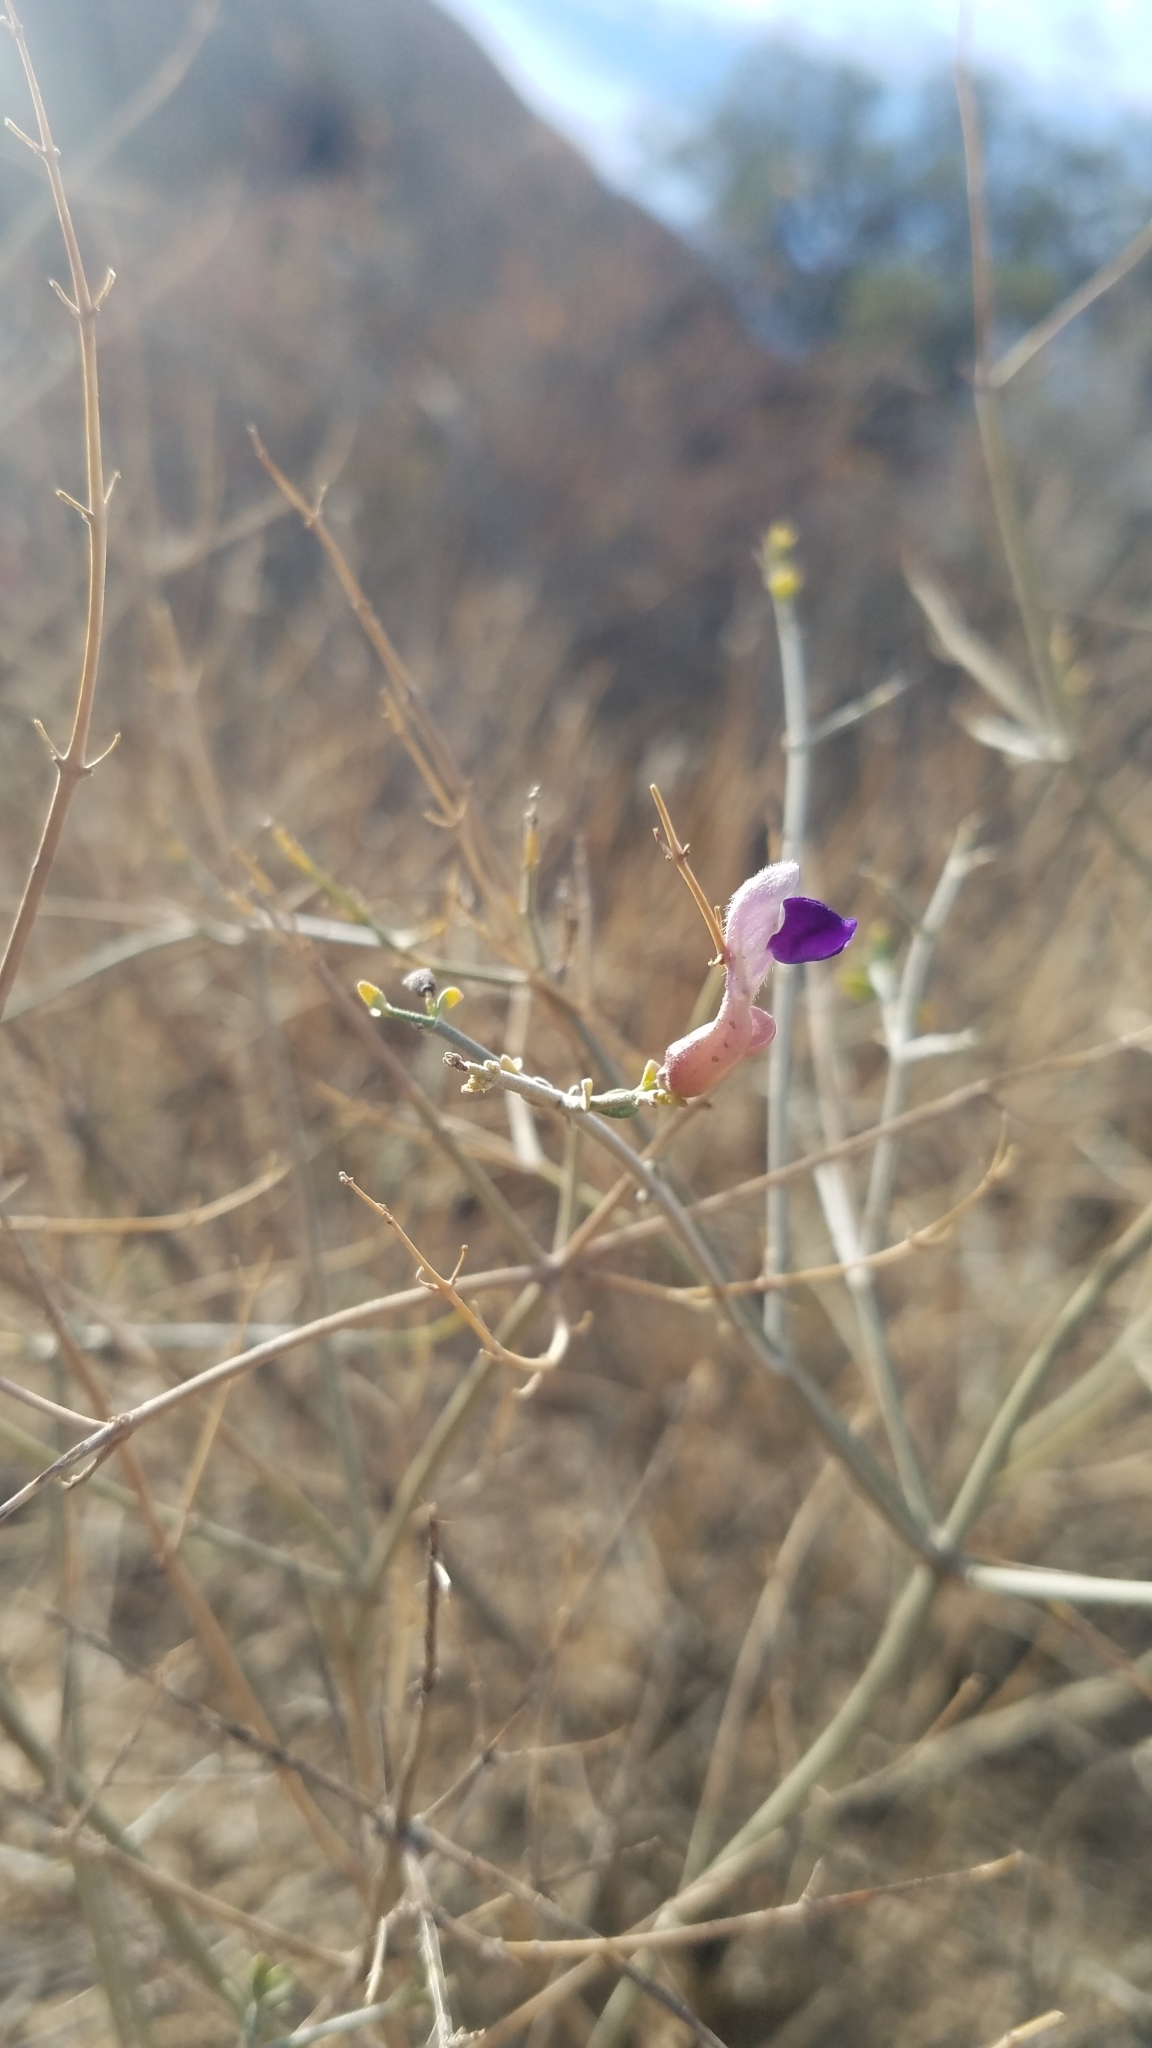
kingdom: Plantae
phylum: Tracheophyta
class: Magnoliopsida
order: Lamiales
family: Lamiaceae
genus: Scutellaria
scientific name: Scutellaria mexicana
